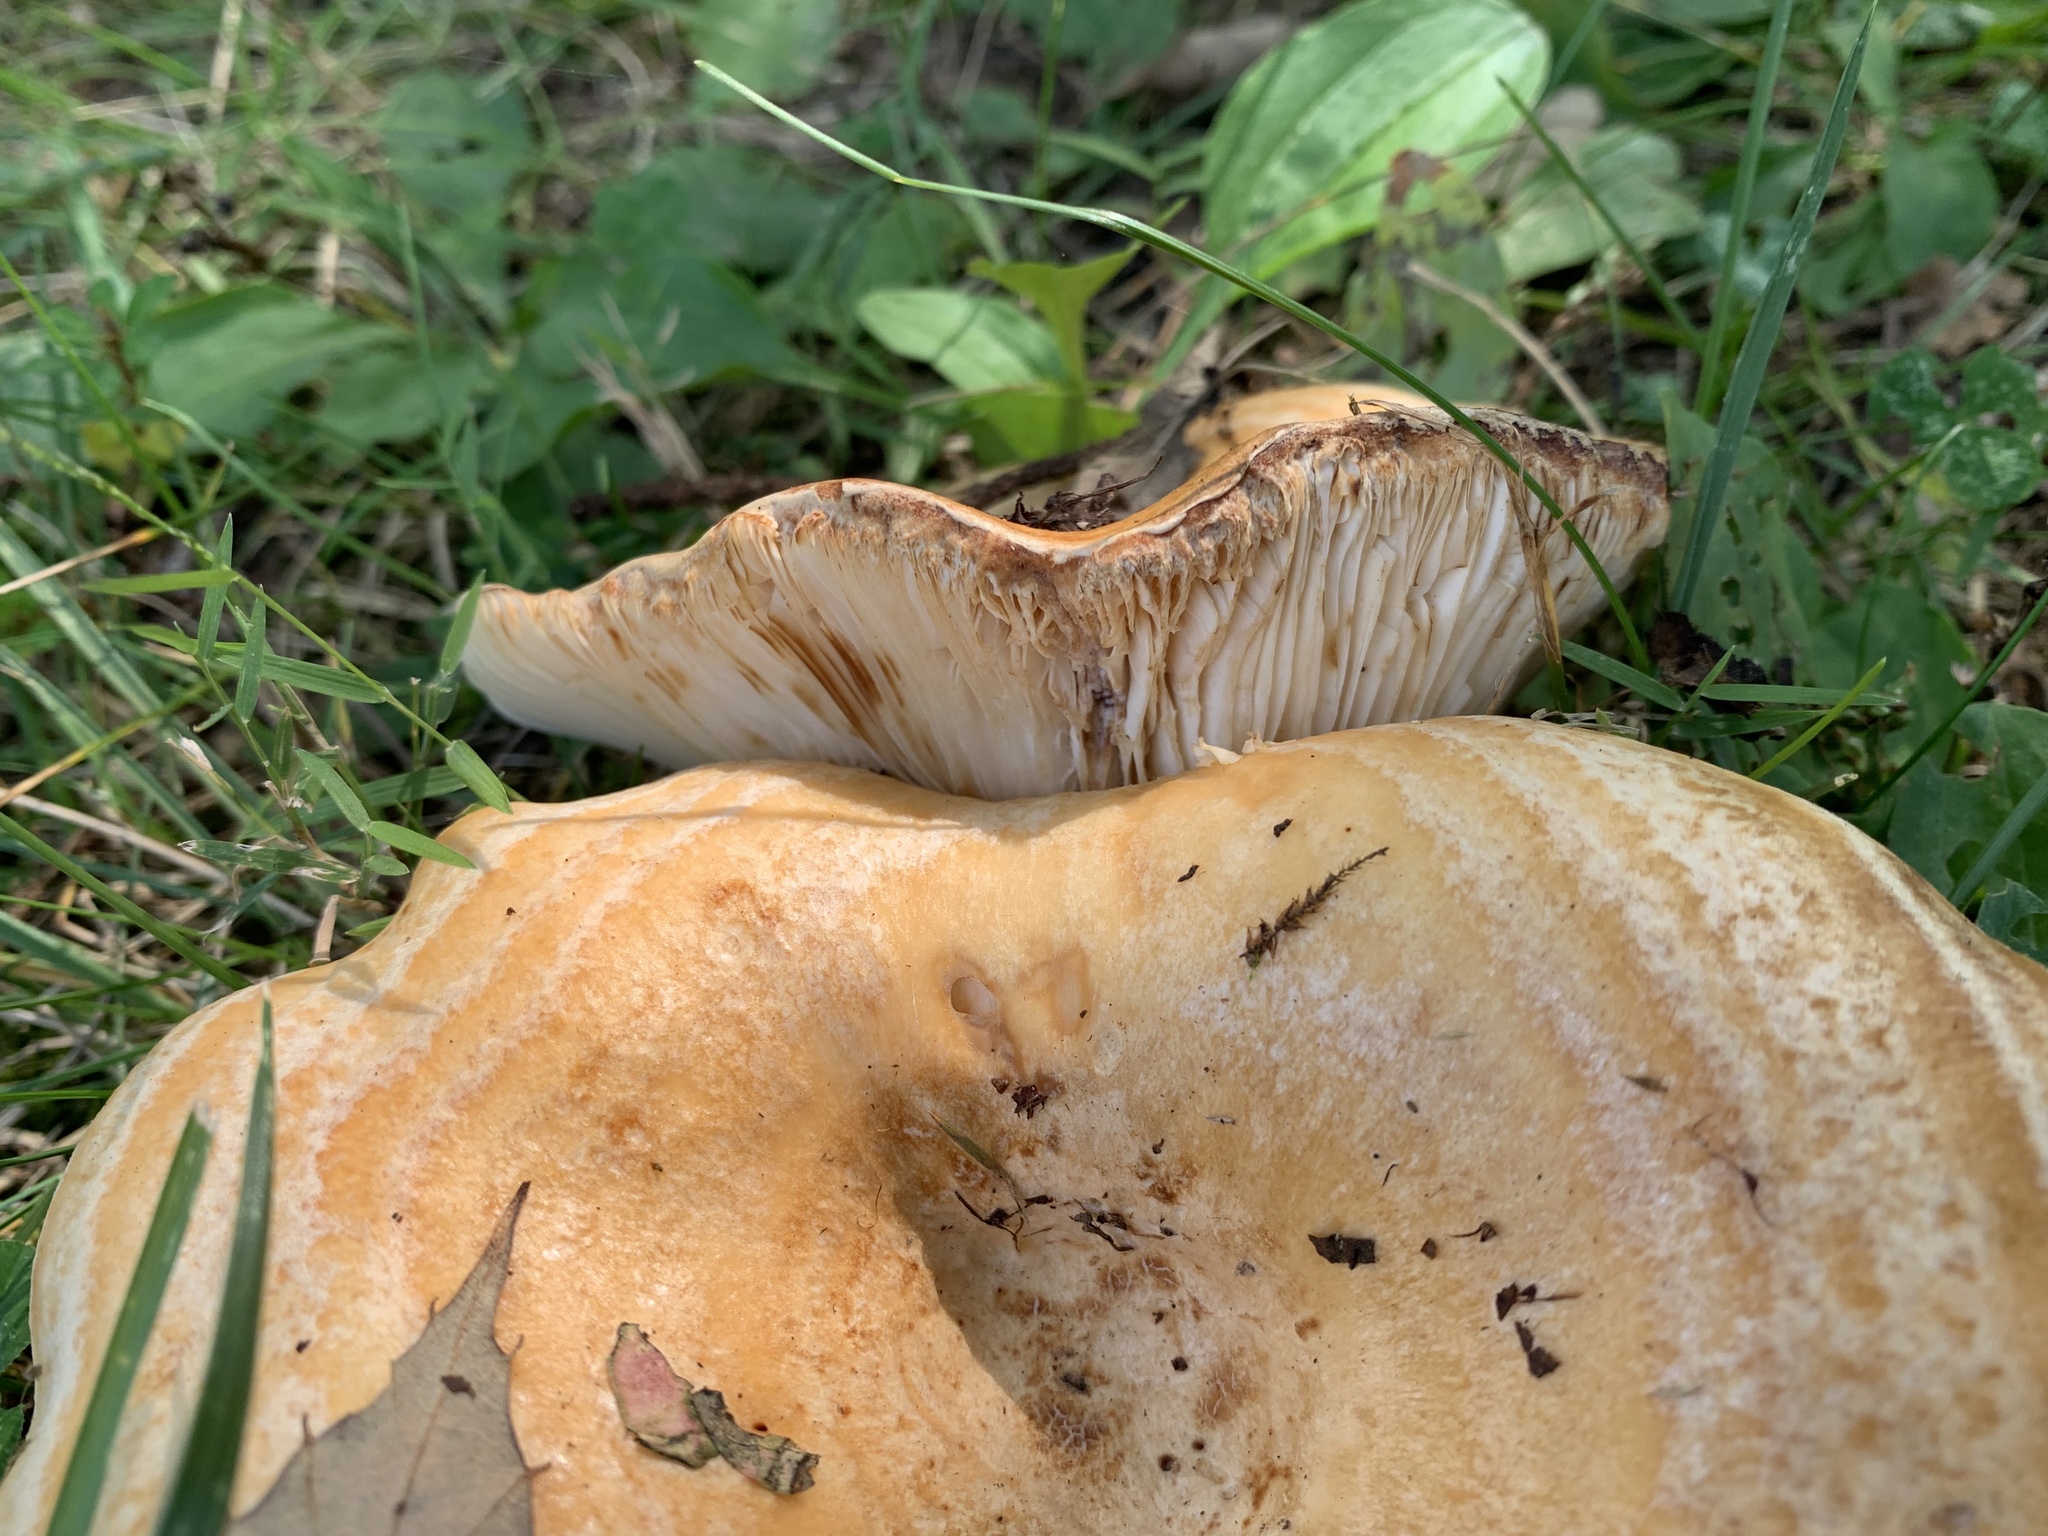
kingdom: Fungi
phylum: Basidiomycota
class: Agaricomycetes
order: Russulales
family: Russulaceae
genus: Lactarius
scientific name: Lactarius psammicola
